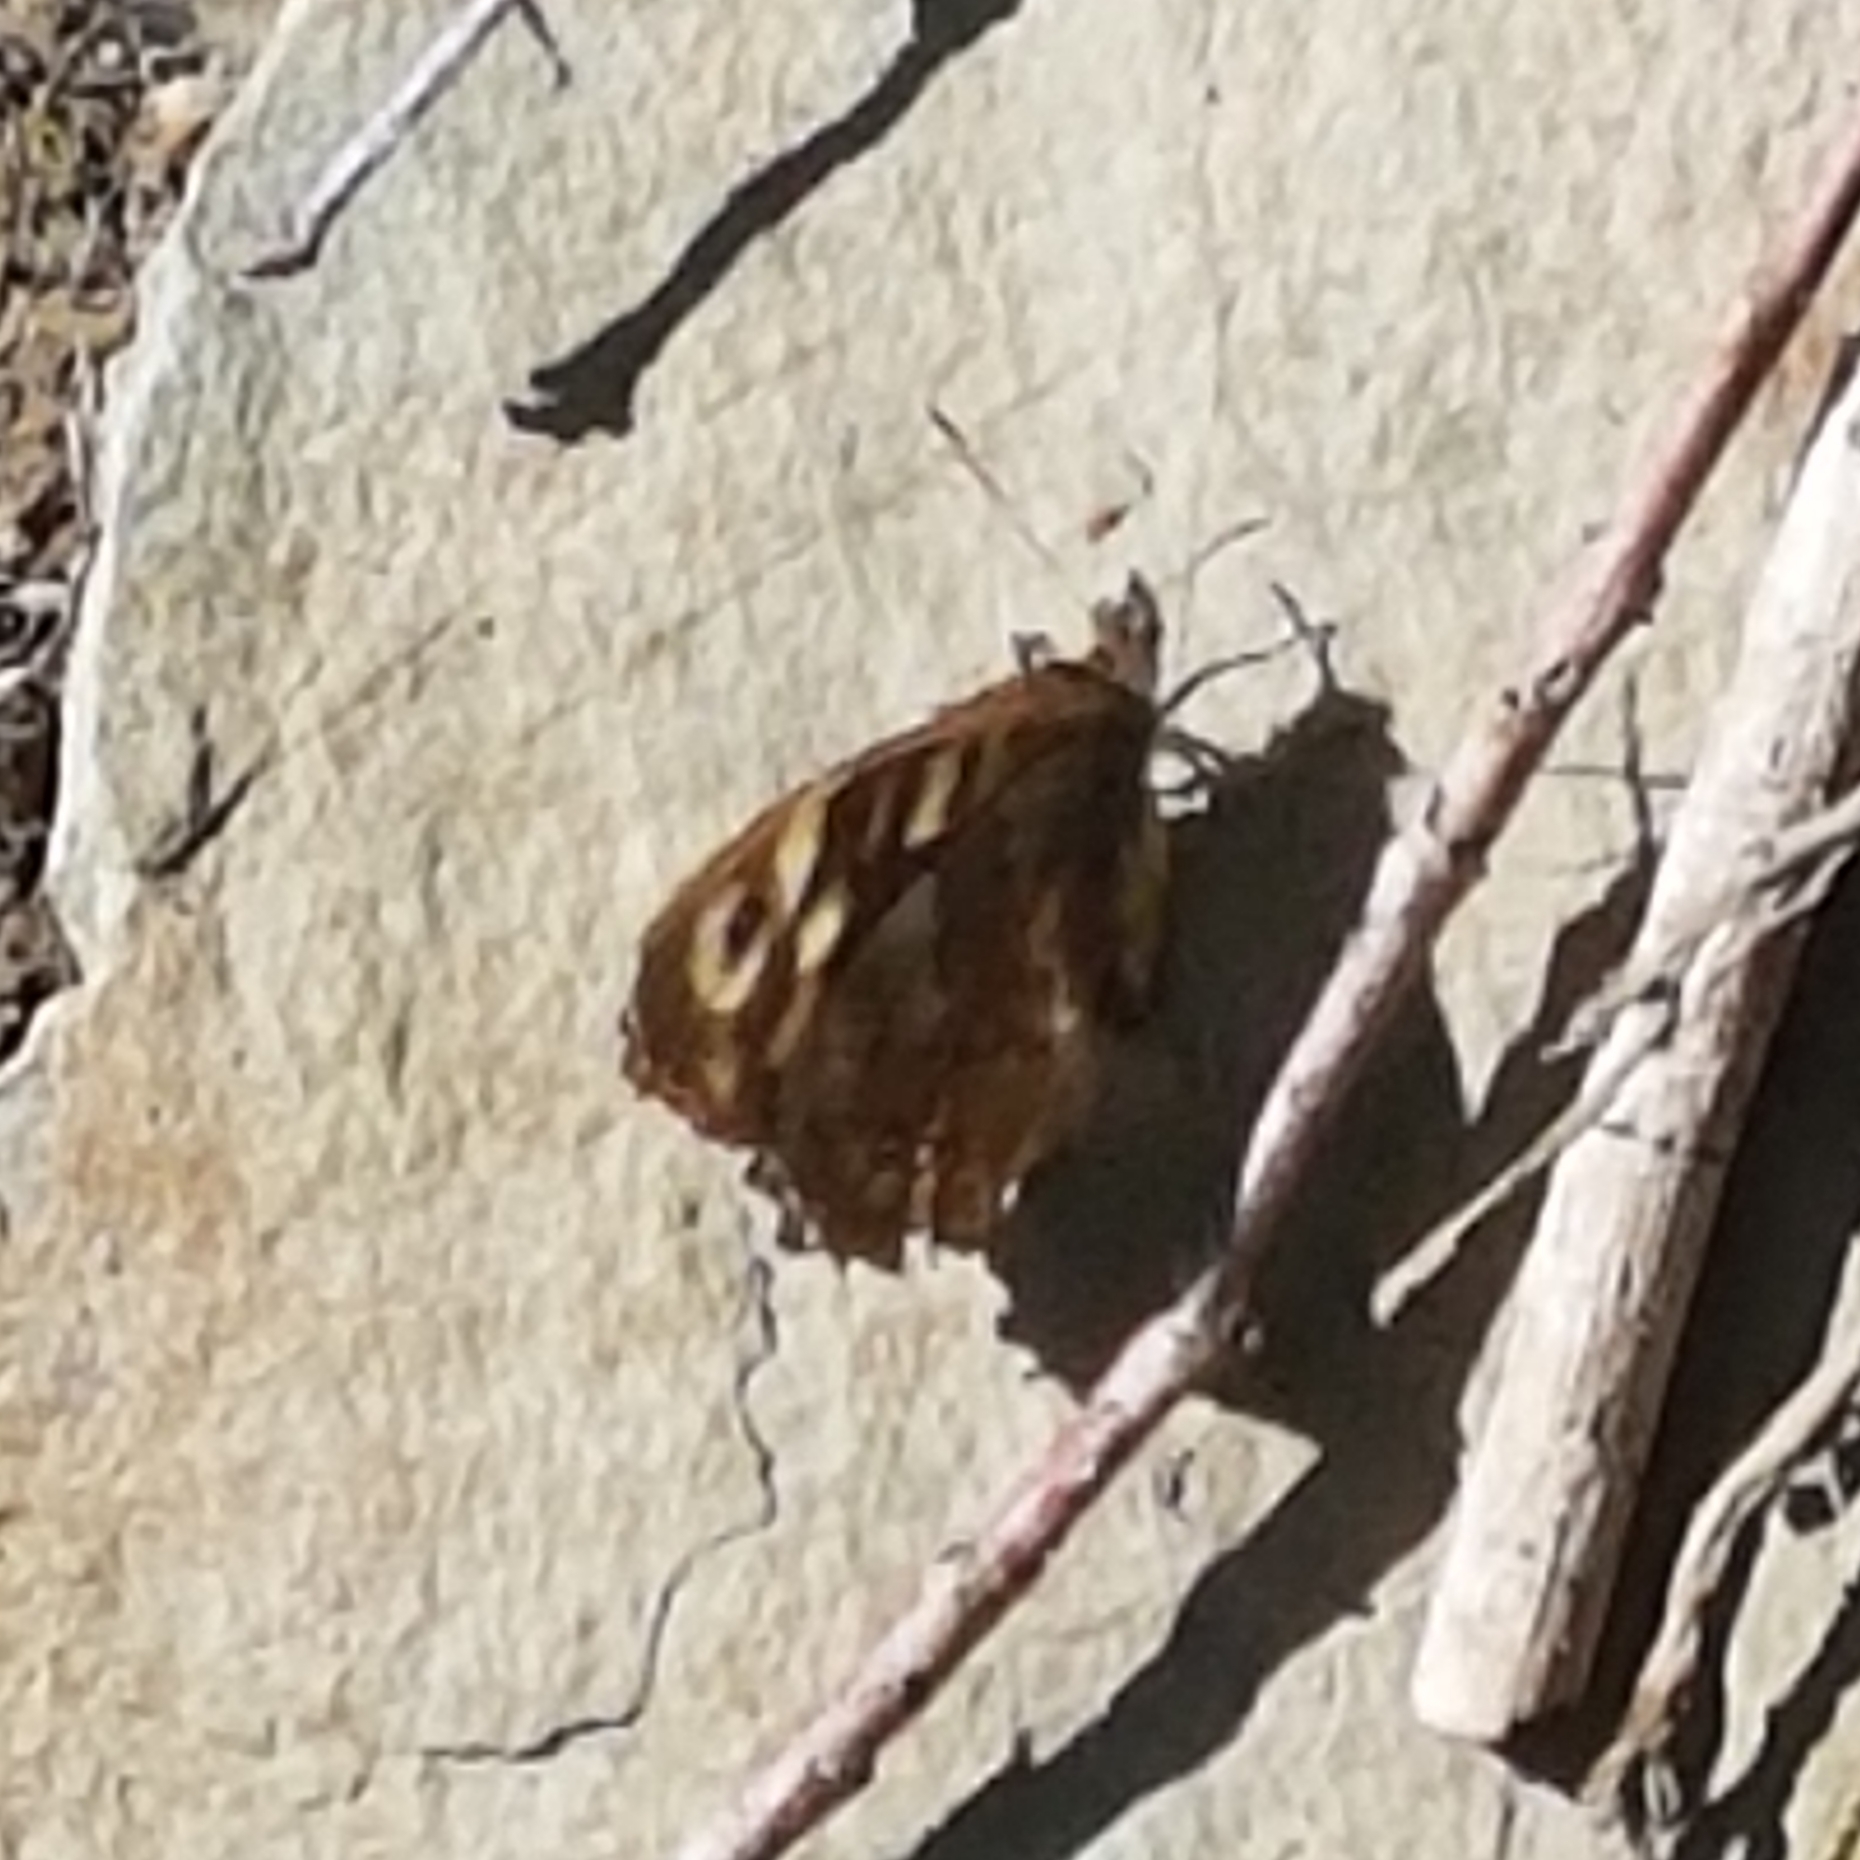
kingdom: Animalia
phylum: Arthropoda
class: Insecta
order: Lepidoptera
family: Nymphalidae
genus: Pararge
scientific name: Pararge aegeria
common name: Speckled wood
